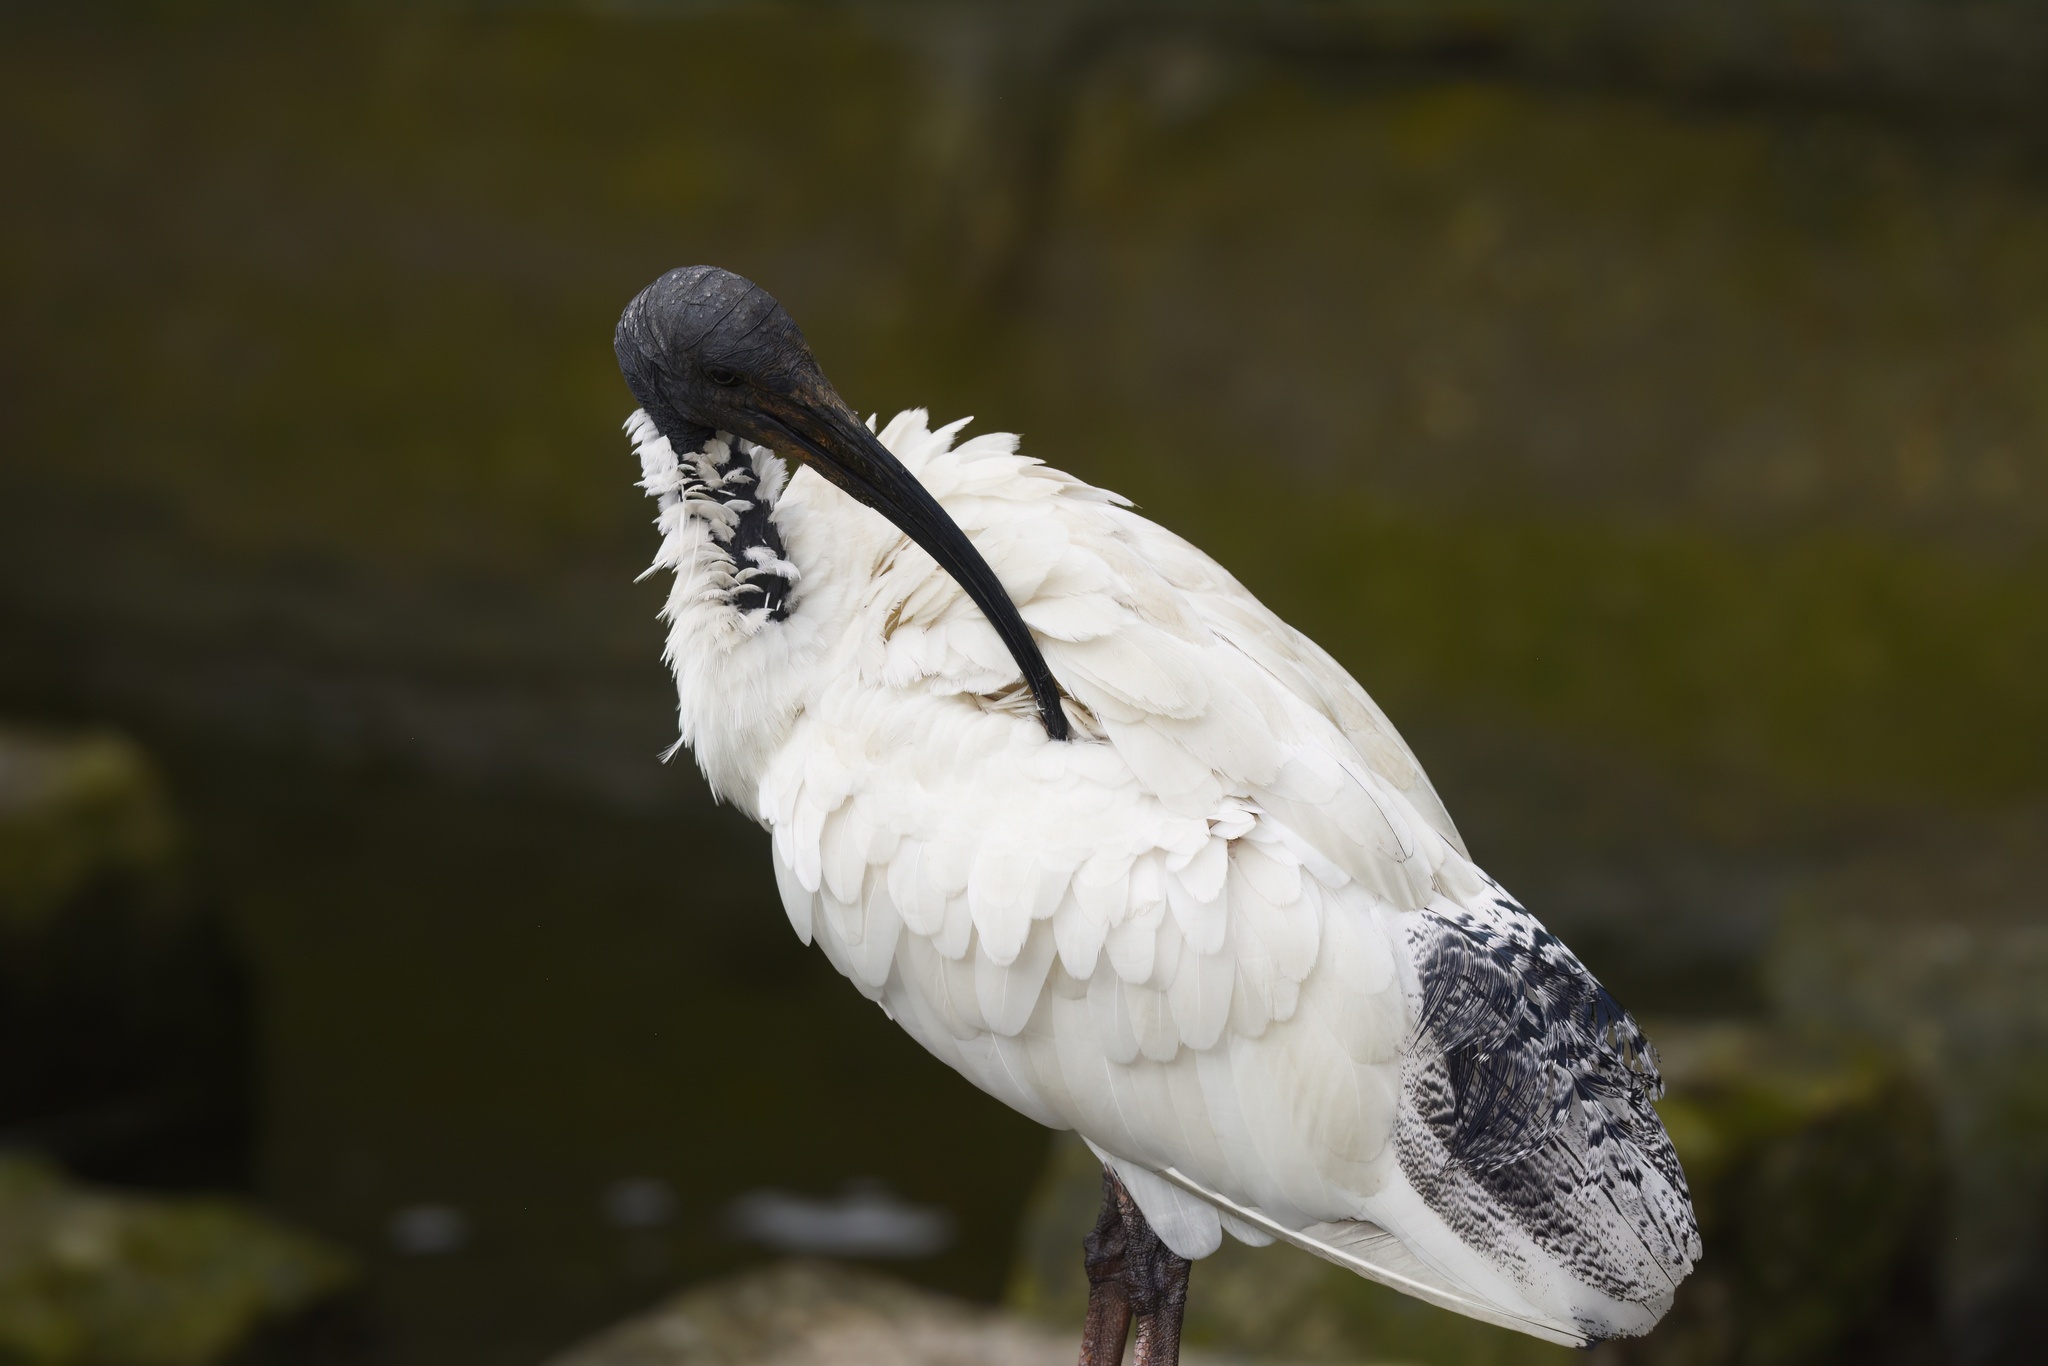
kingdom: Animalia
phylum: Chordata
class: Aves
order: Pelecaniformes
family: Threskiornithidae
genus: Threskiornis
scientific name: Threskiornis molucca
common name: Australian white ibis
